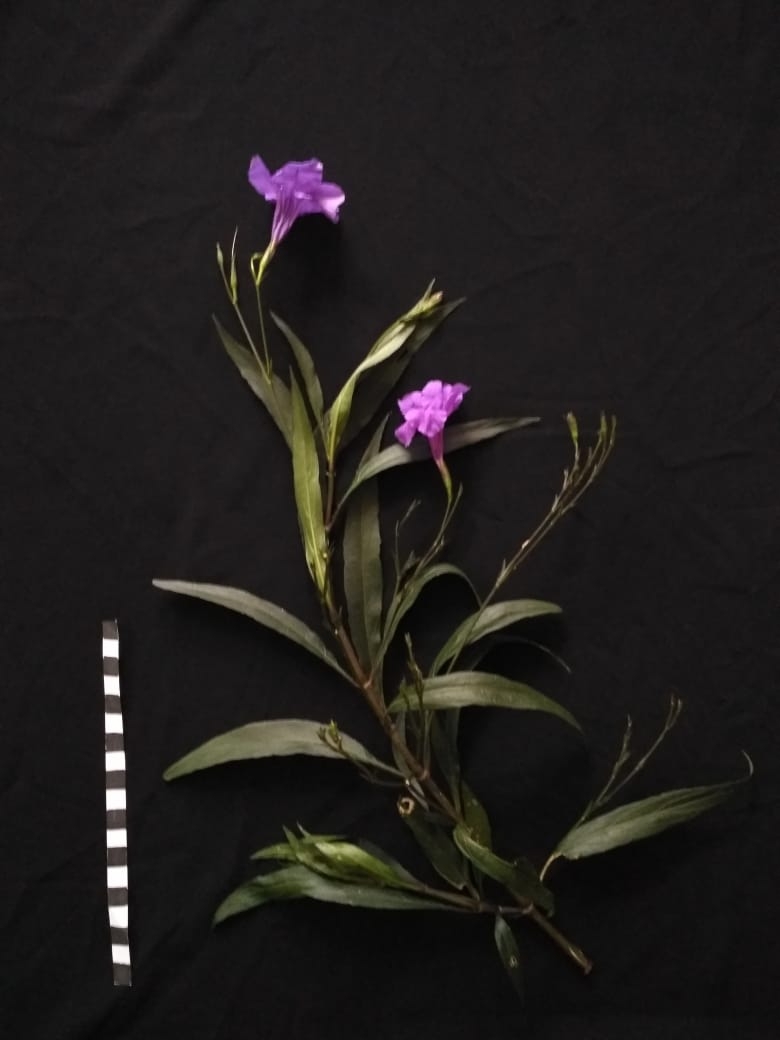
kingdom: Plantae
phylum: Tracheophyta
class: Magnoliopsida
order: Lamiales
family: Acanthaceae
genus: Ruellia
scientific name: Ruellia simplex
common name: Softseed wild petunia
